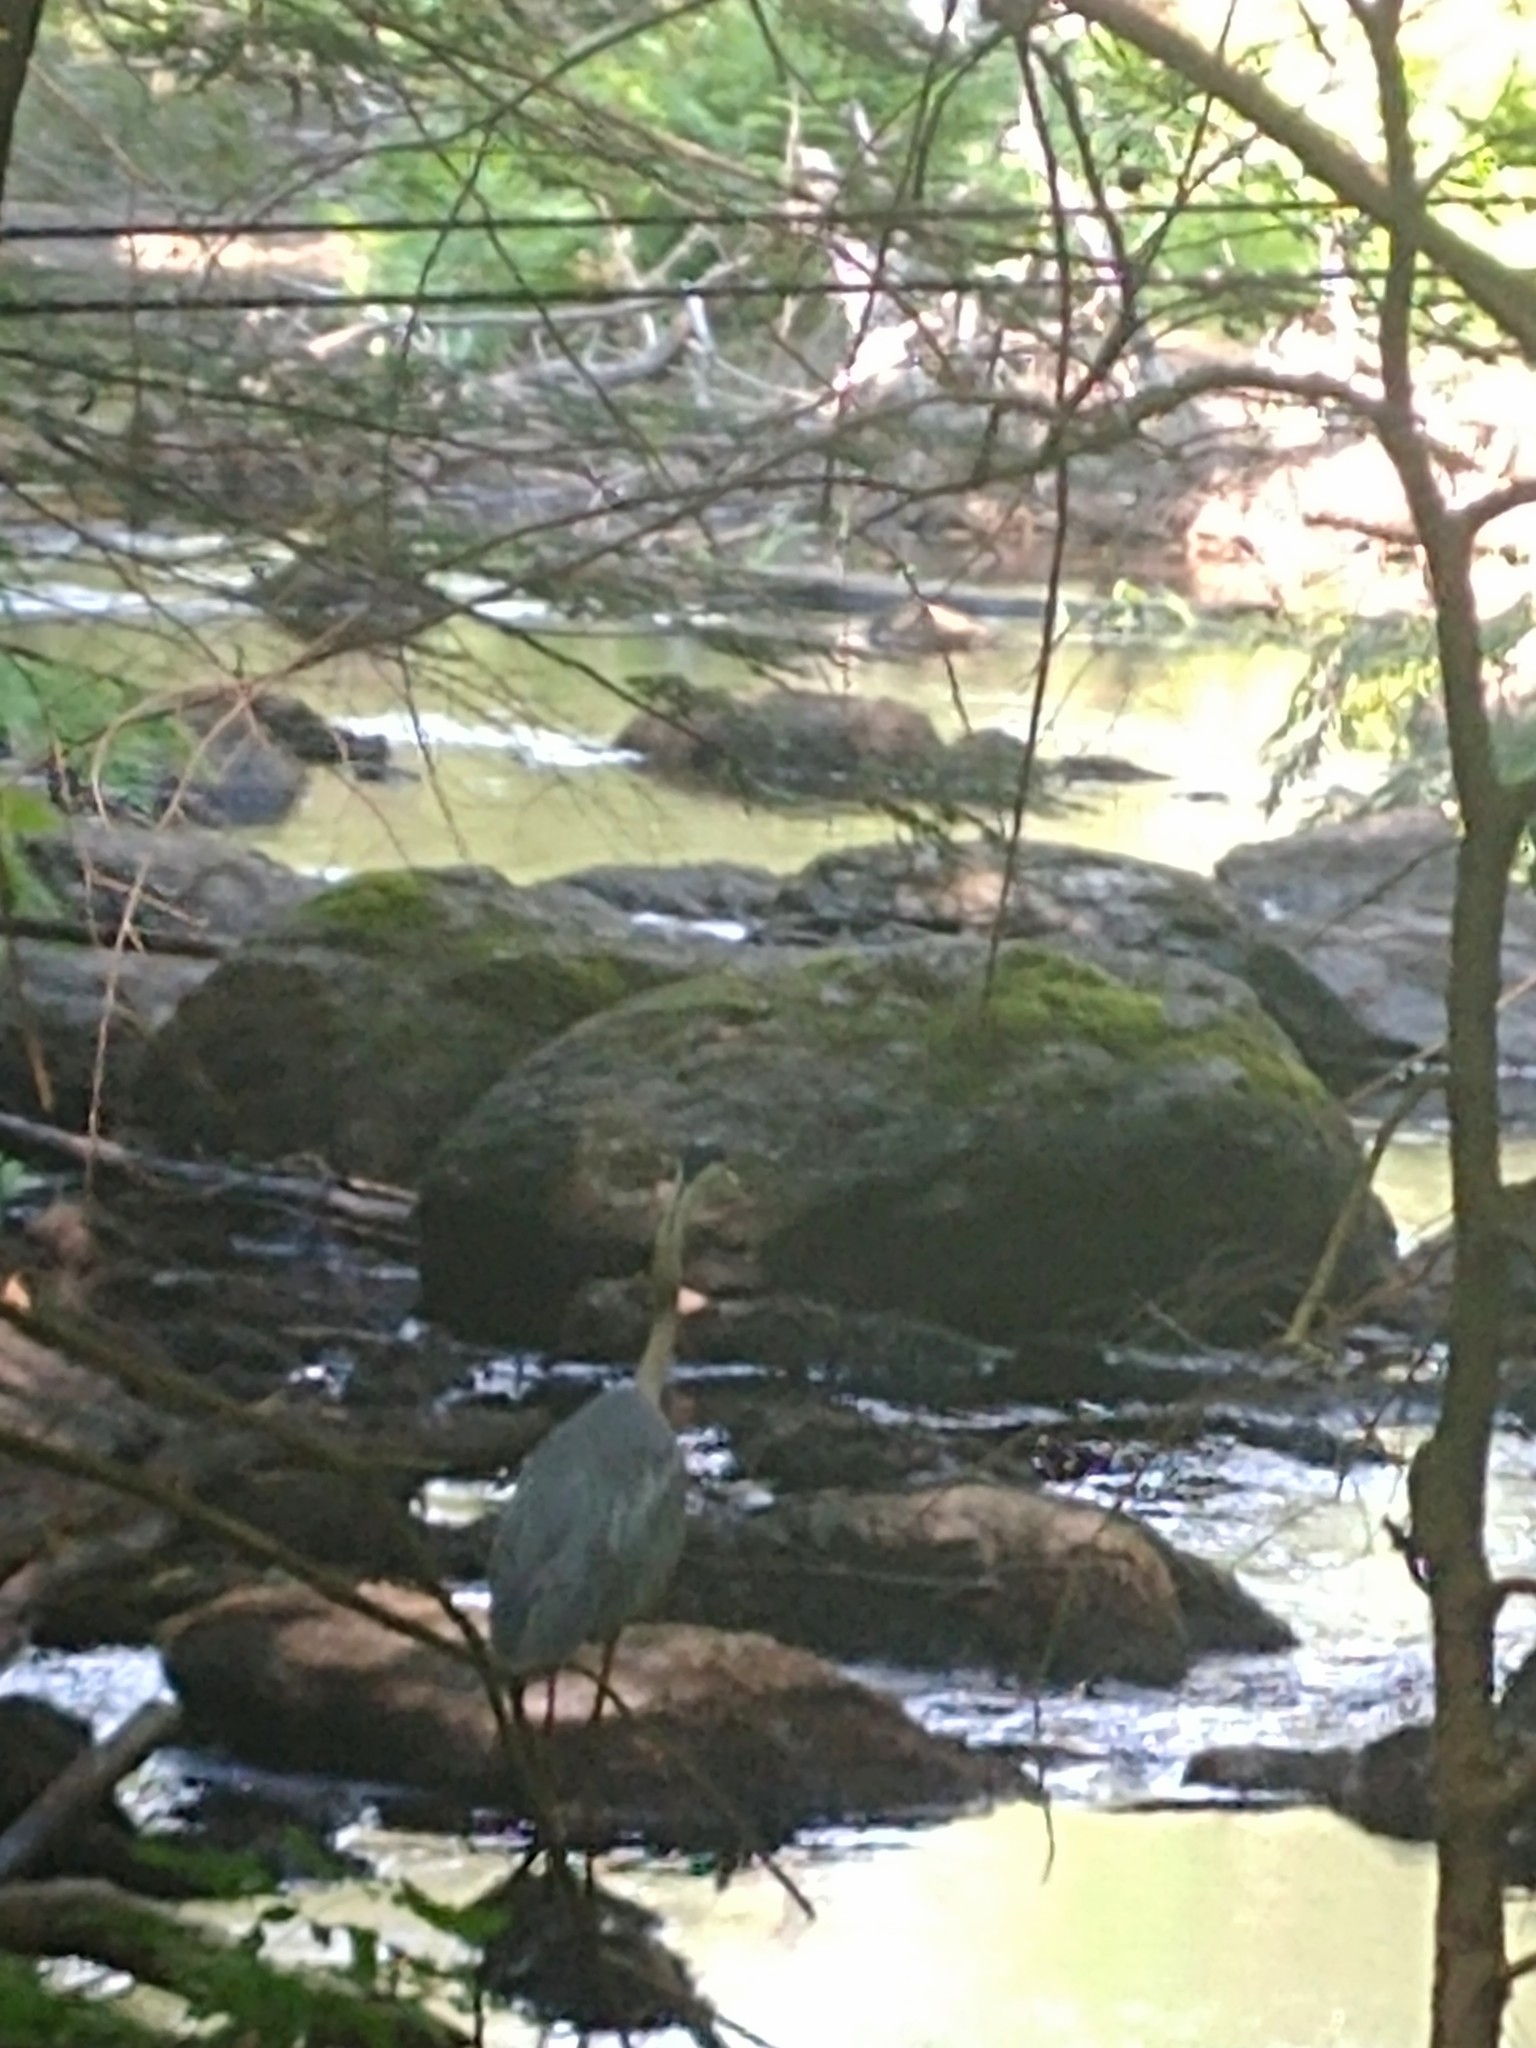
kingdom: Animalia
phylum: Chordata
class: Aves
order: Pelecaniformes
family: Ardeidae
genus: Ardea
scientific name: Ardea herodias
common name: Great blue heron
